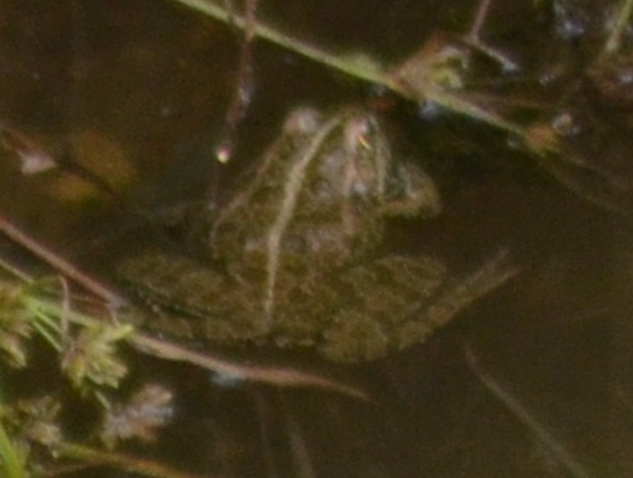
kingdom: Animalia
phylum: Chordata
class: Amphibia
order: Anura
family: Ranidae
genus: Pelophylax
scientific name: Pelophylax perezi
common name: Perez's frog
